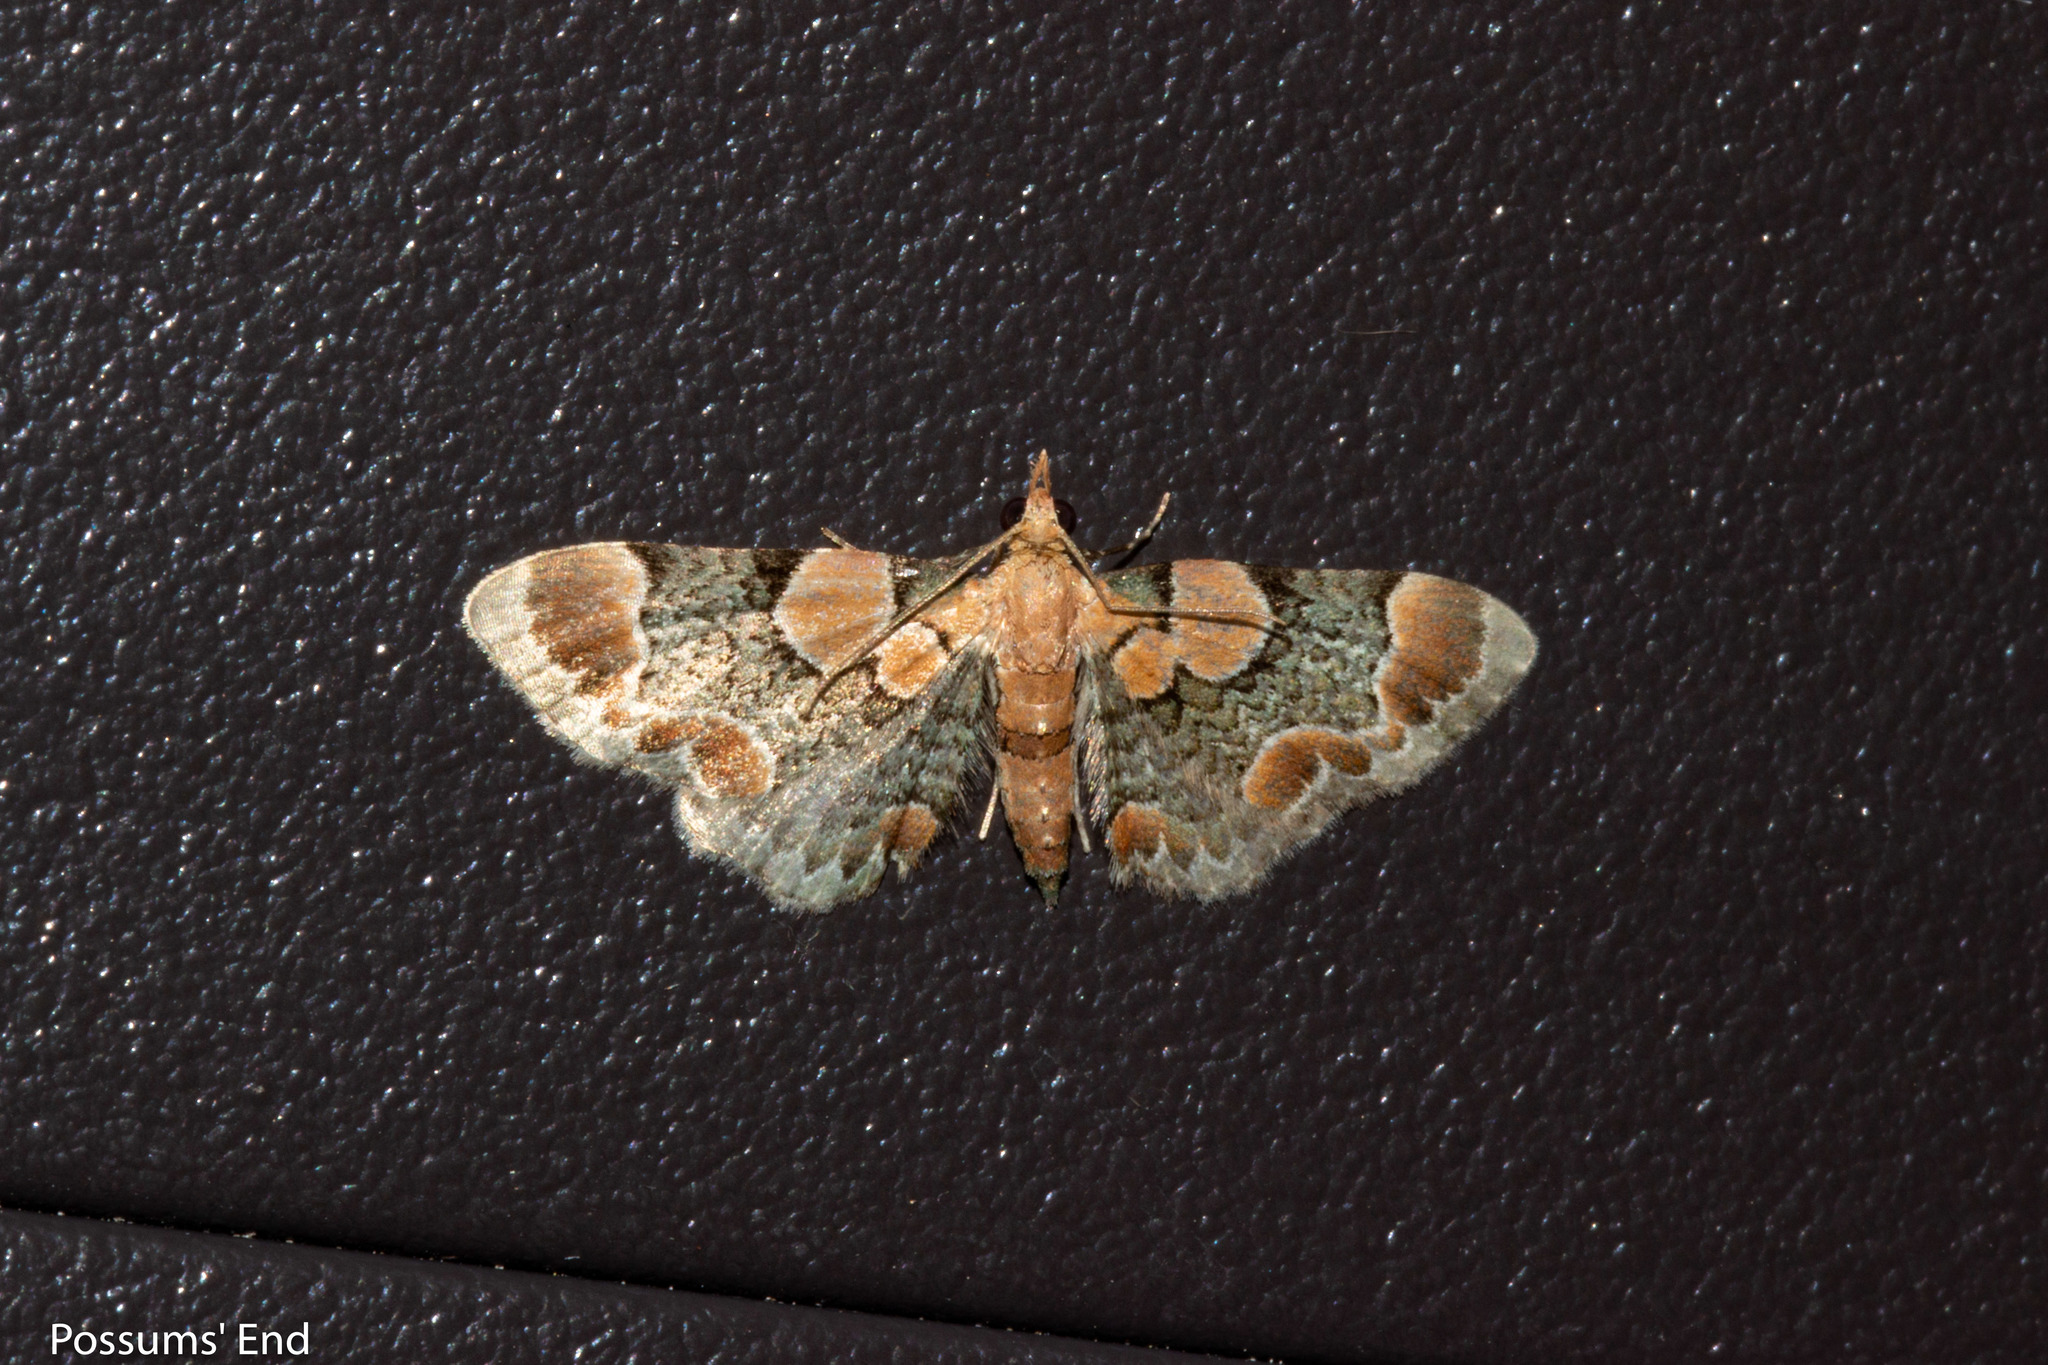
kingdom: Animalia
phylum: Arthropoda
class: Insecta
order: Lepidoptera
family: Geometridae
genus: Chloroclystis
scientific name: Chloroclystis
